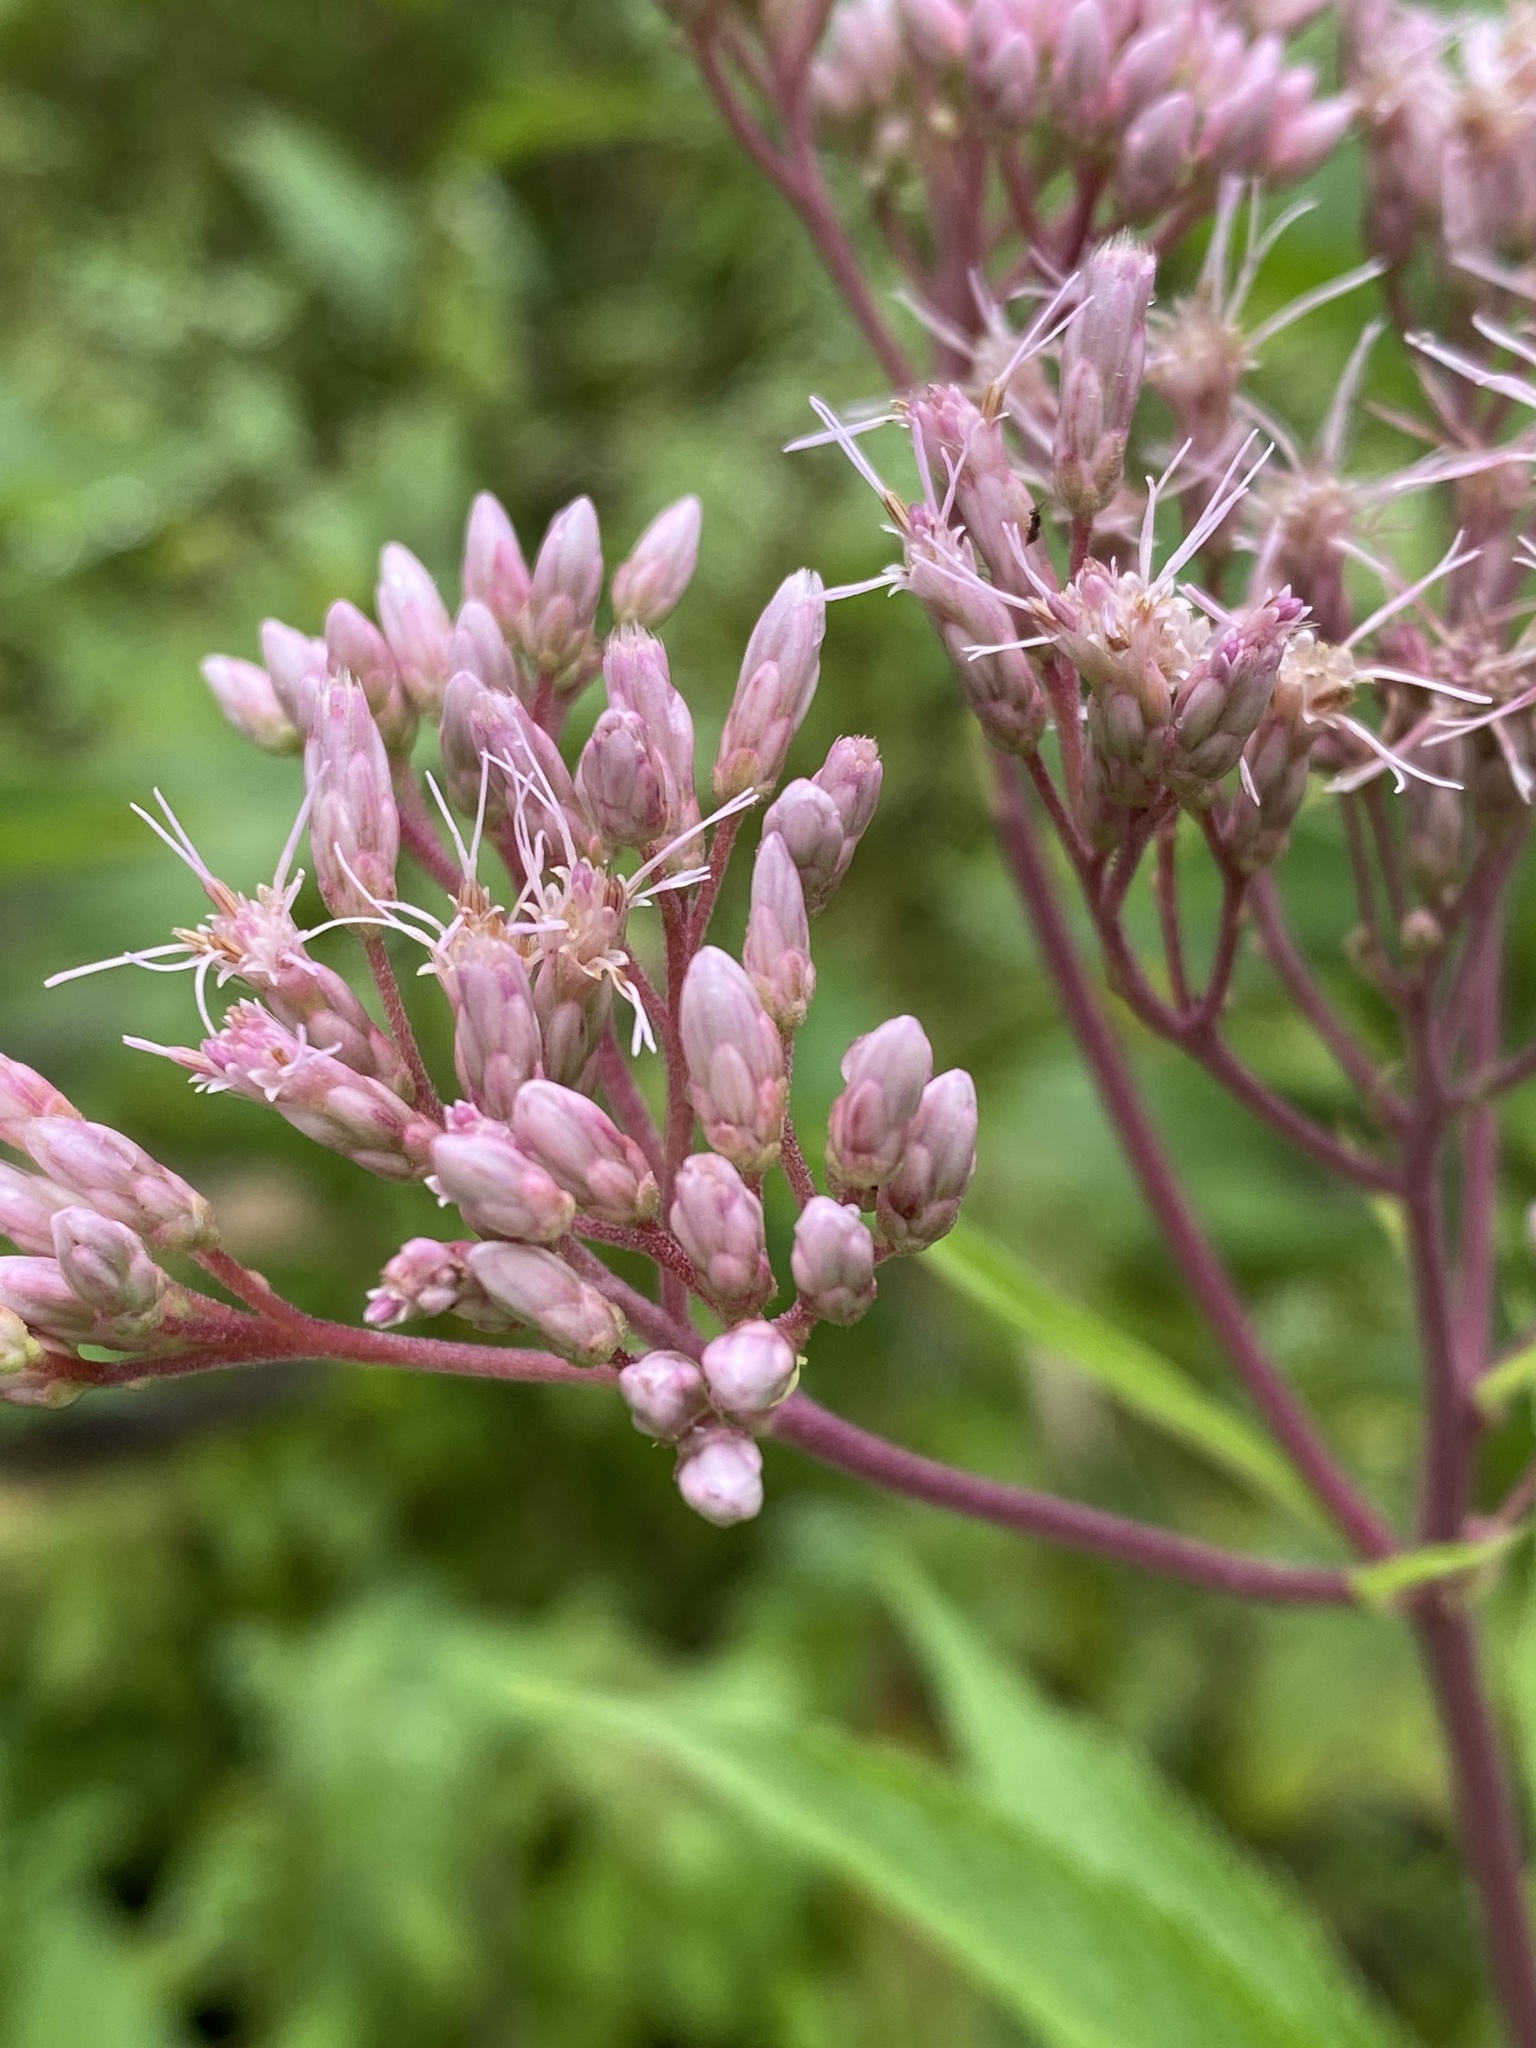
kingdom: Plantae
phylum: Tracheophyta
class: Magnoliopsida
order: Asterales
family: Asteraceae
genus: Eutrochium
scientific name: Eutrochium maculatum
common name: Spotted joe pye weed
